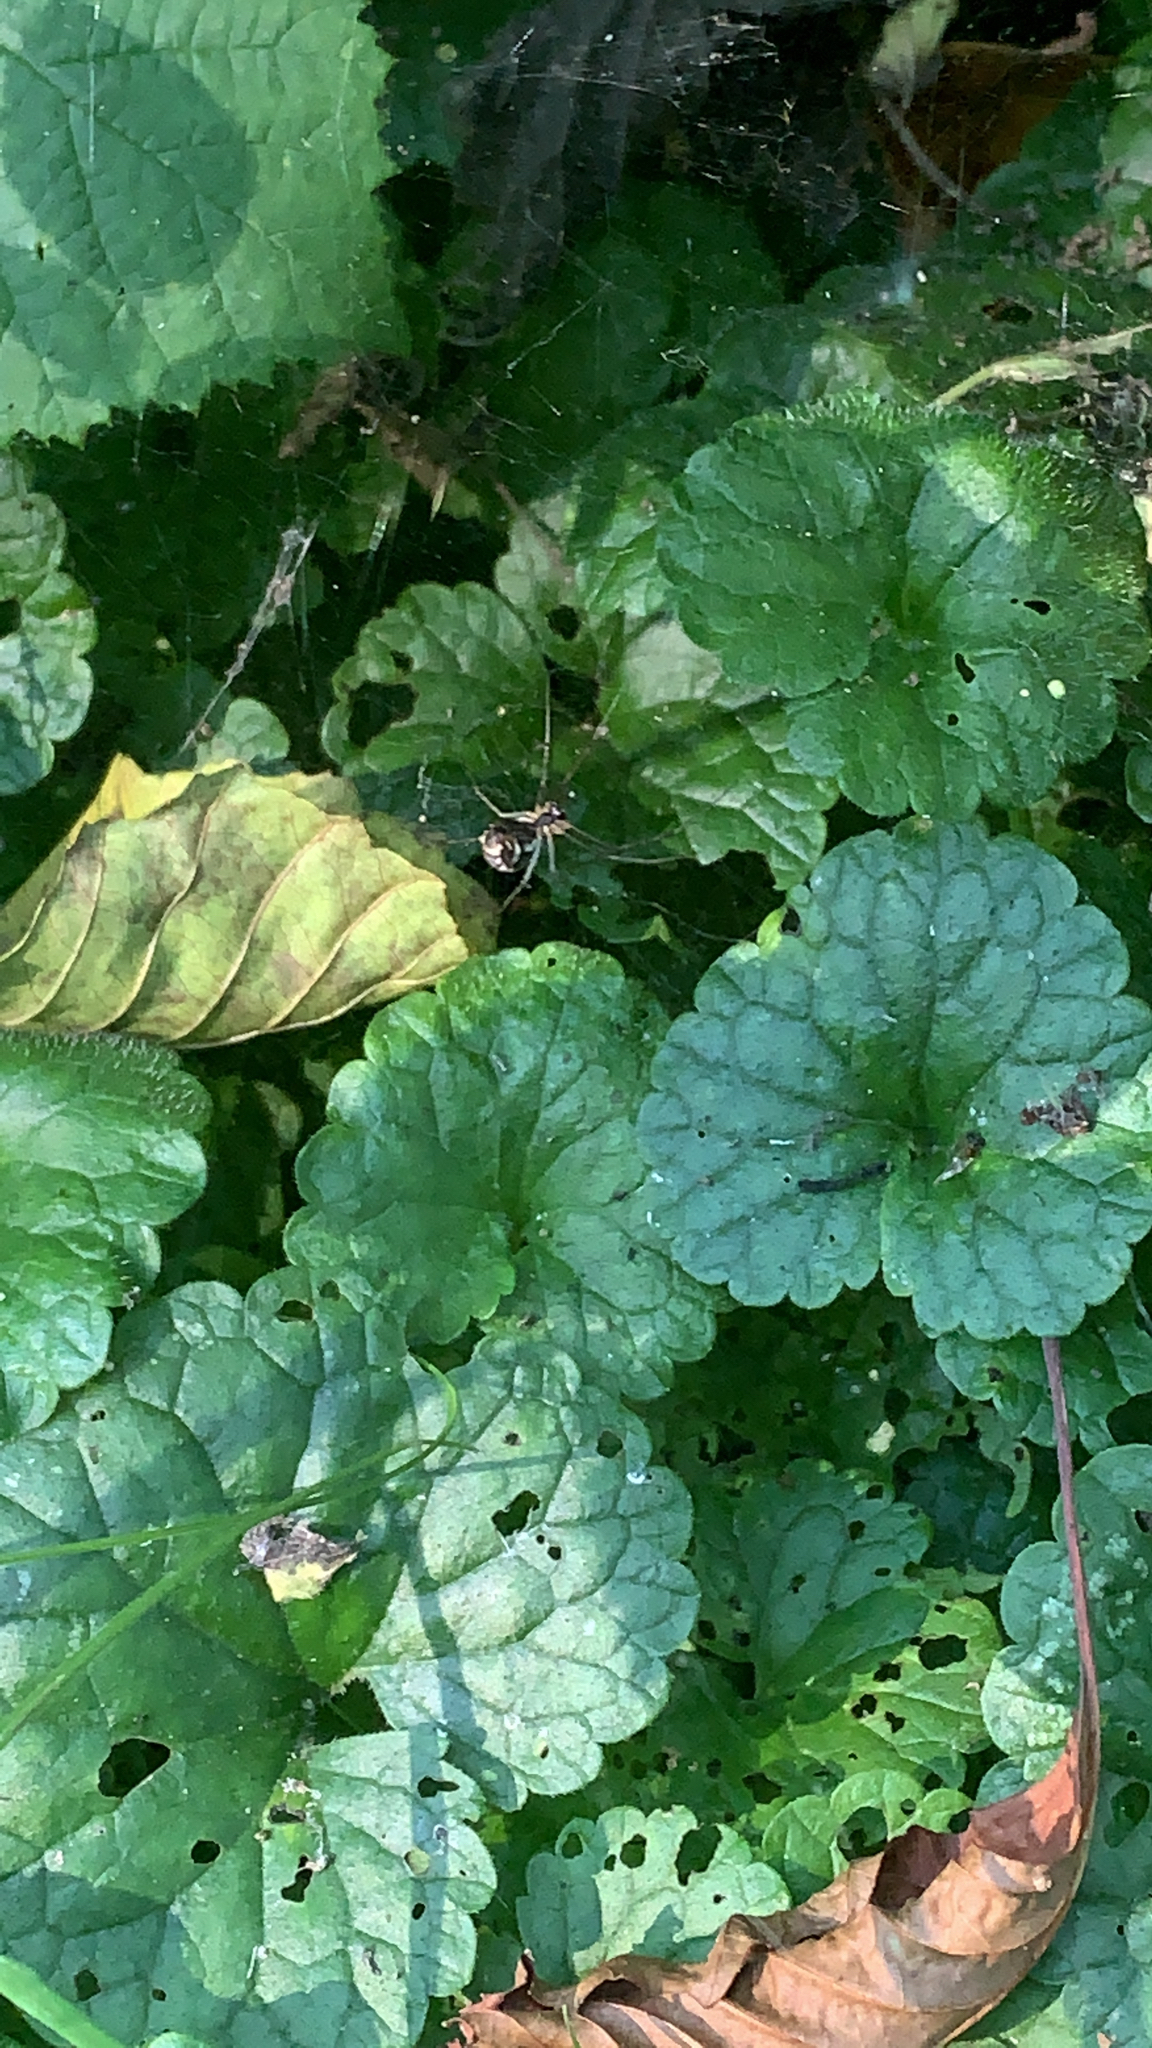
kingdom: Animalia
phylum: Arthropoda
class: Arachnida
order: Araneae
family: Linyphiidae
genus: Neriene
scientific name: Neriene radiata
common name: Filmy dome spider
